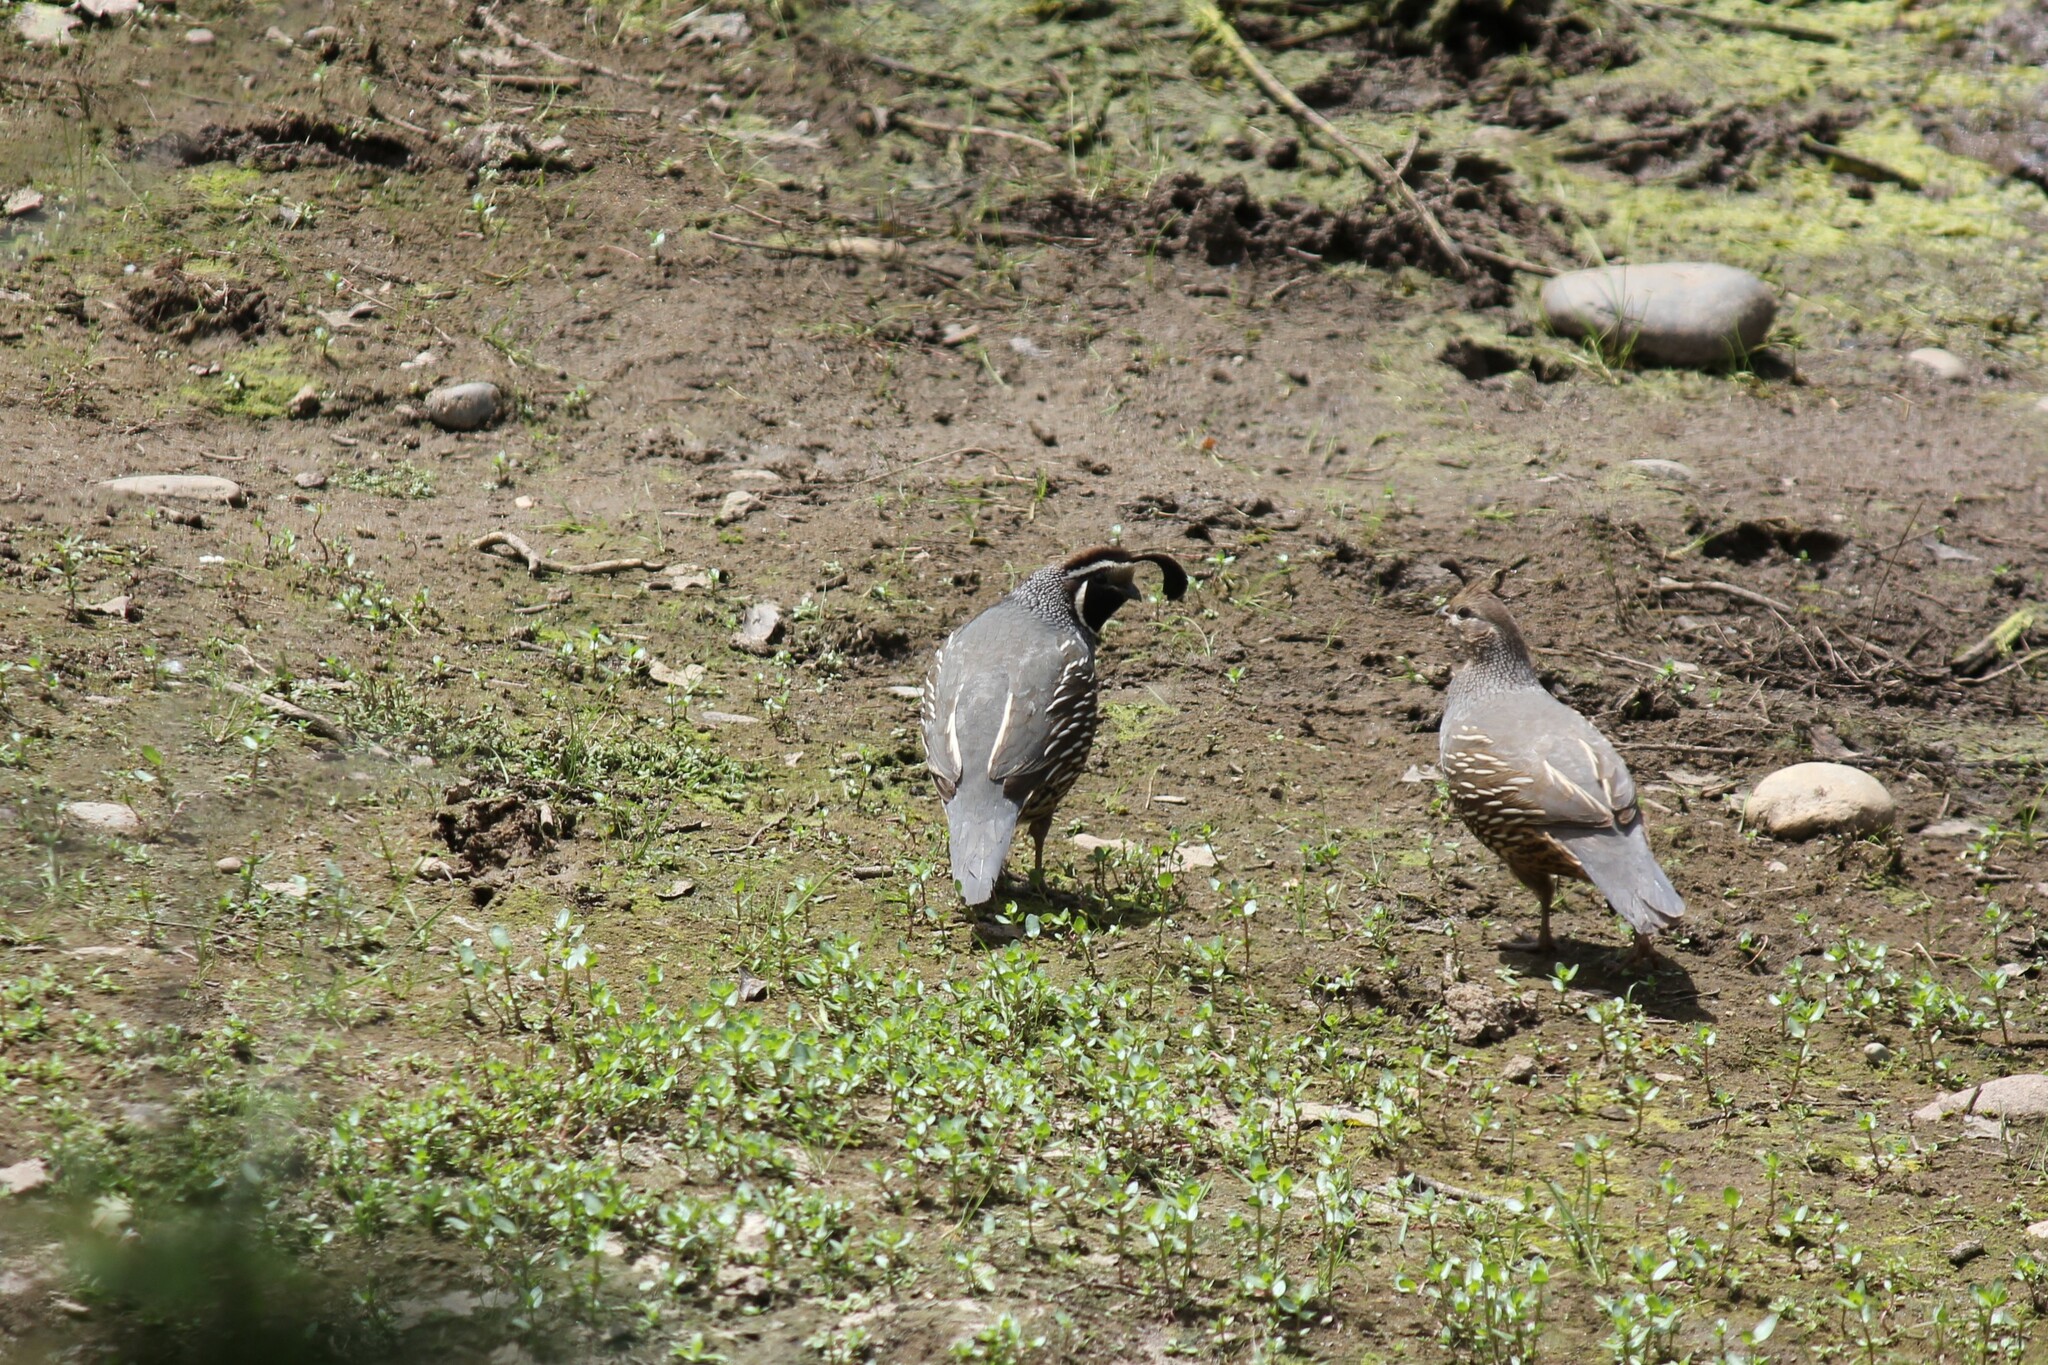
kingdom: Animalia
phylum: Chordata
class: Aves
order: Galliformes
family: Odontophoridae
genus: Callipepla
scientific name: Callipepla californica
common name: California quail
